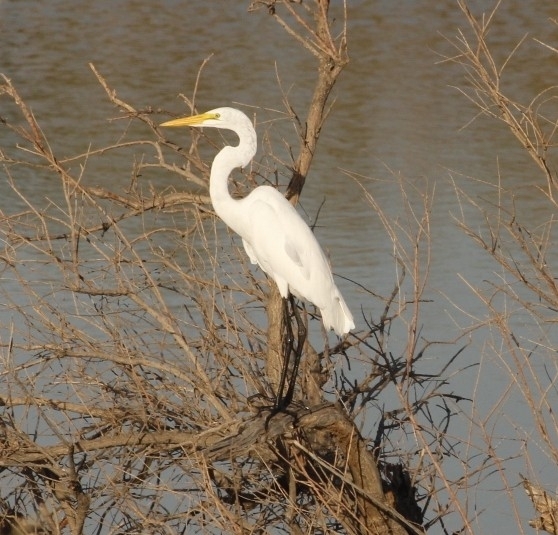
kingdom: Animalia
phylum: Chordata
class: Aves
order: Pelecaniformes
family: Ardeidae
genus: Ardea
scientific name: Ardea alba
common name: Great egret
